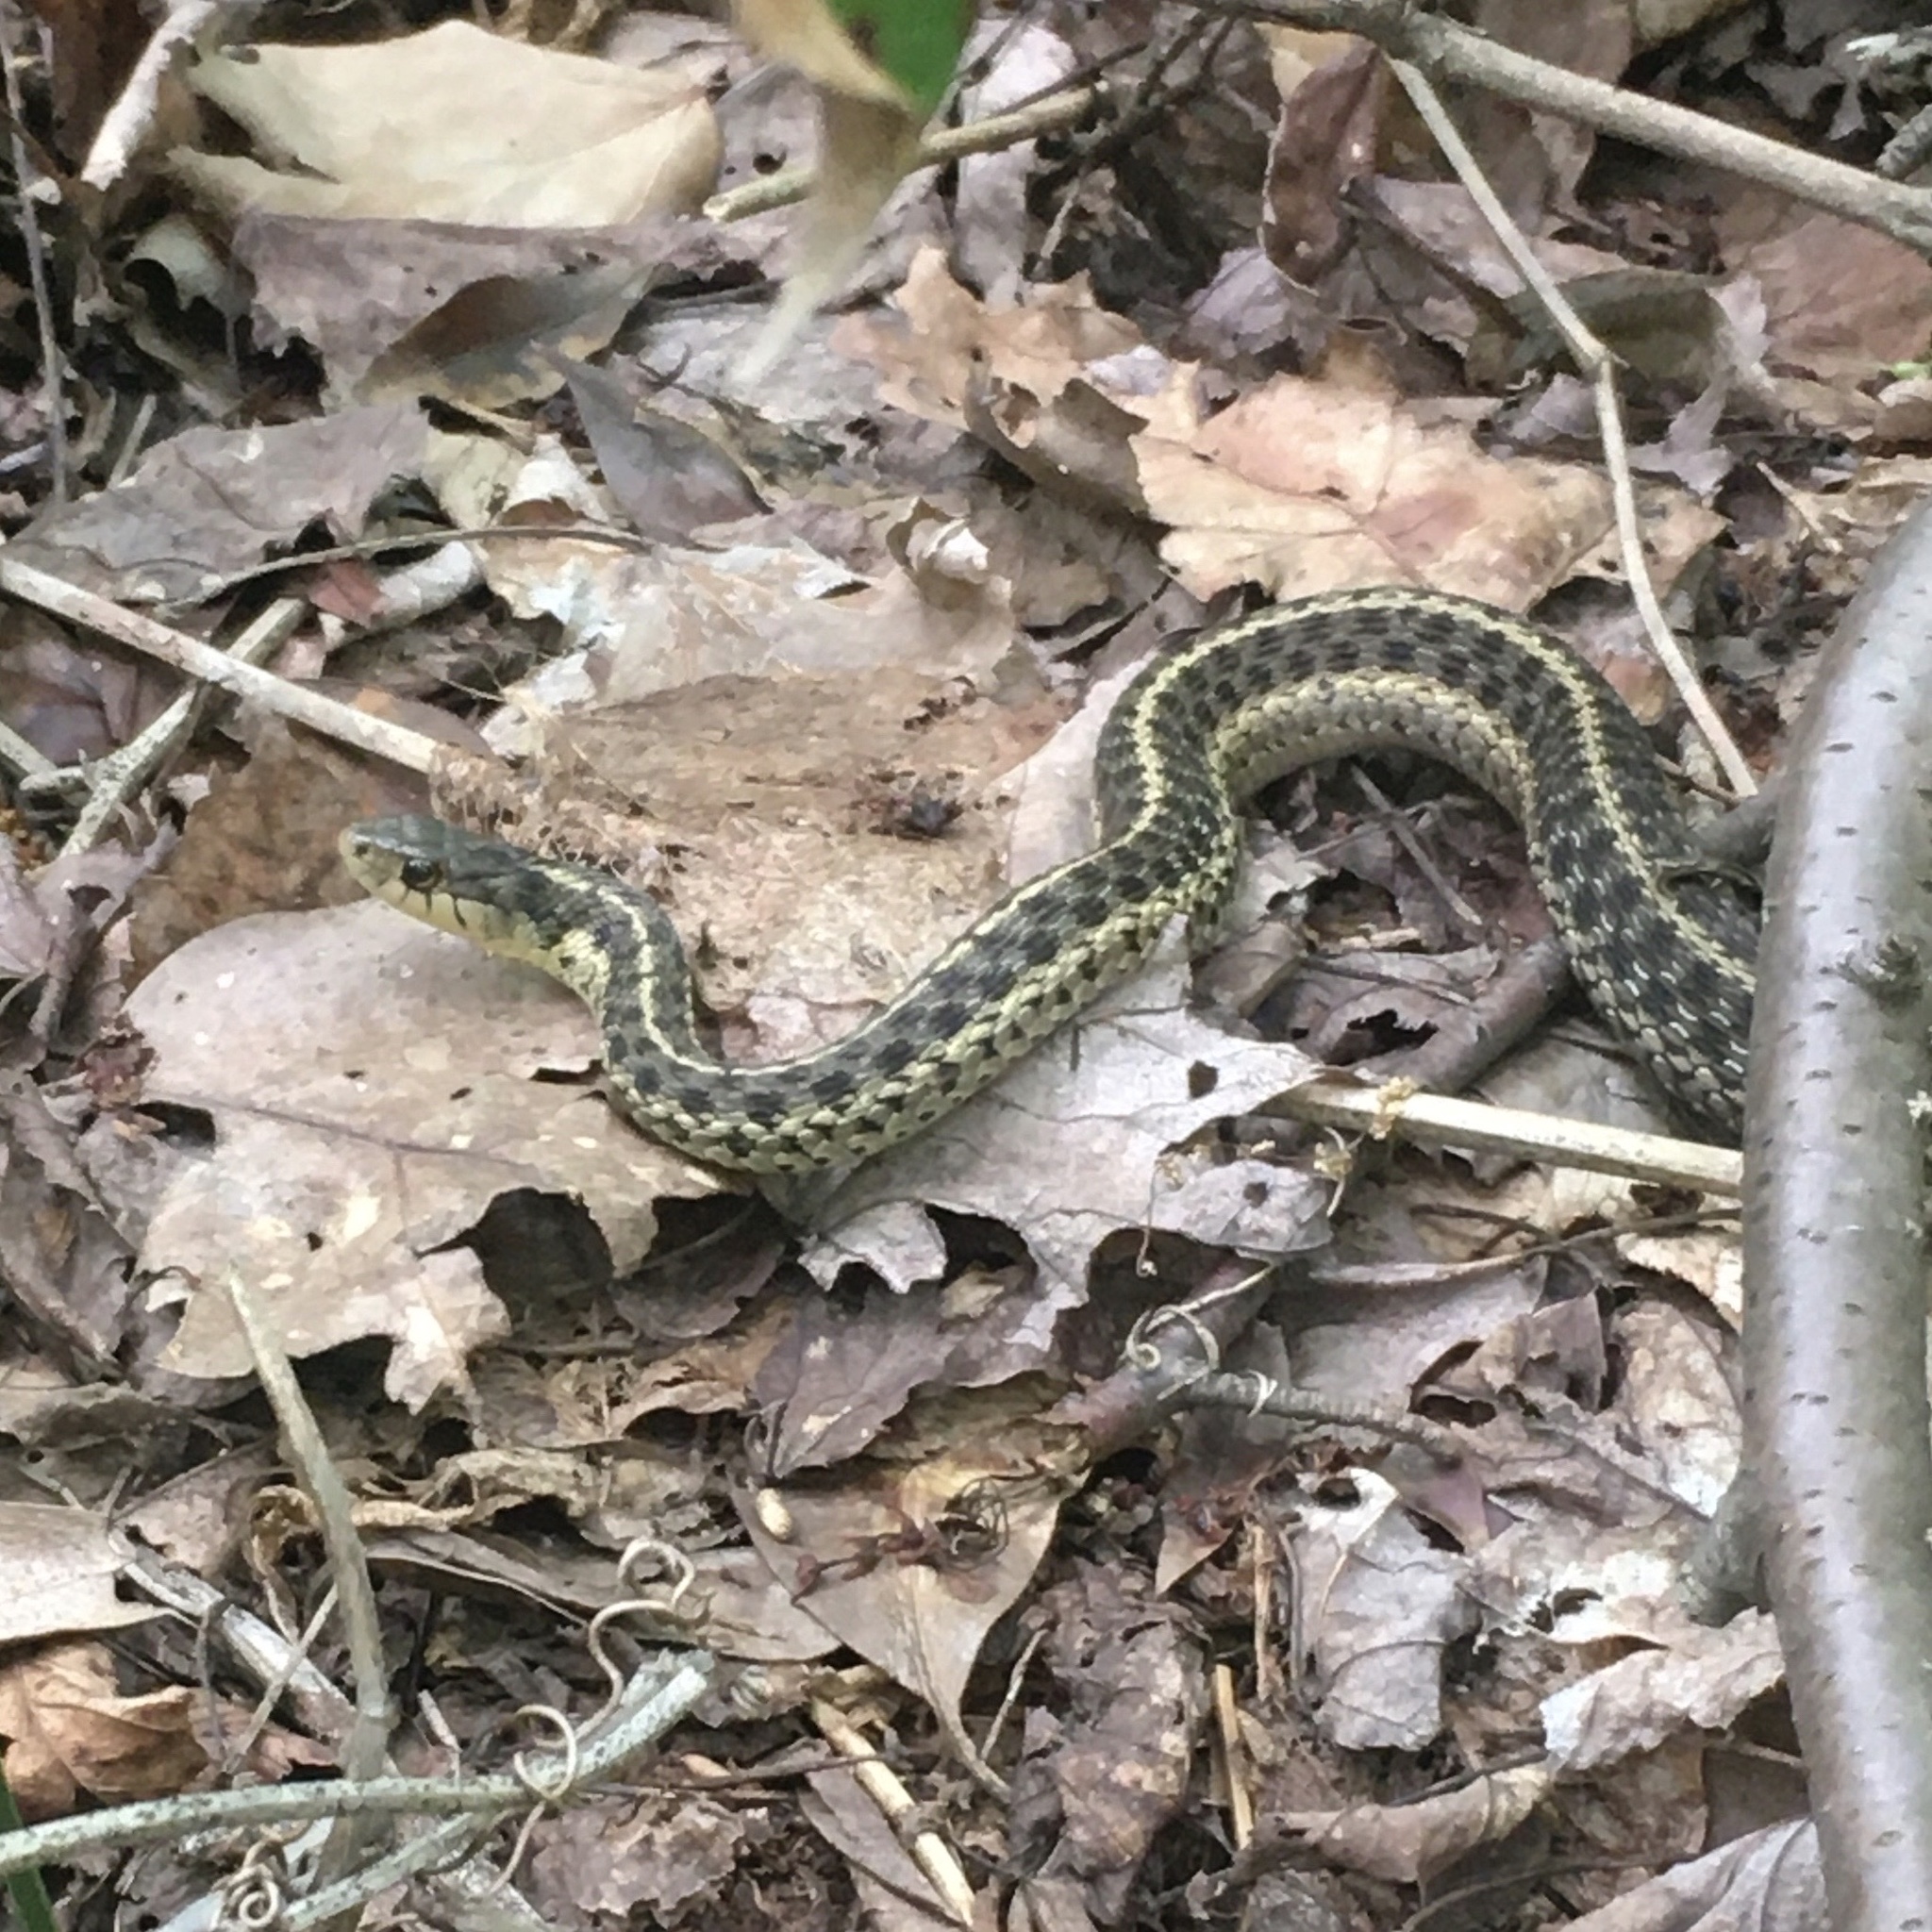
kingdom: Animalia
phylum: Chordata
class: Squamata
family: Colubridae
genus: Thamnophis
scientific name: Thamnophis sirtalis
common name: Common garter snake
